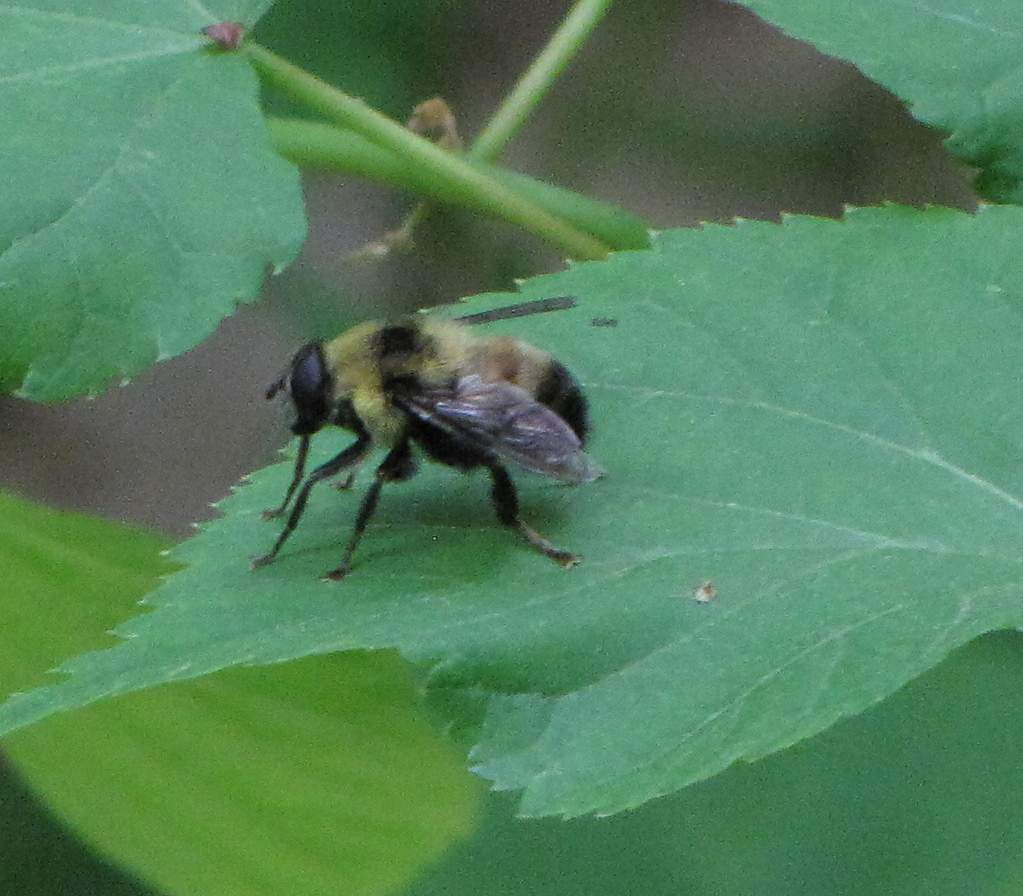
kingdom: Animalia
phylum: Arthropoda
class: Insecta
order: Diptera
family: Syrphidae
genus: Imatisma
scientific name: Imatisma posticata
